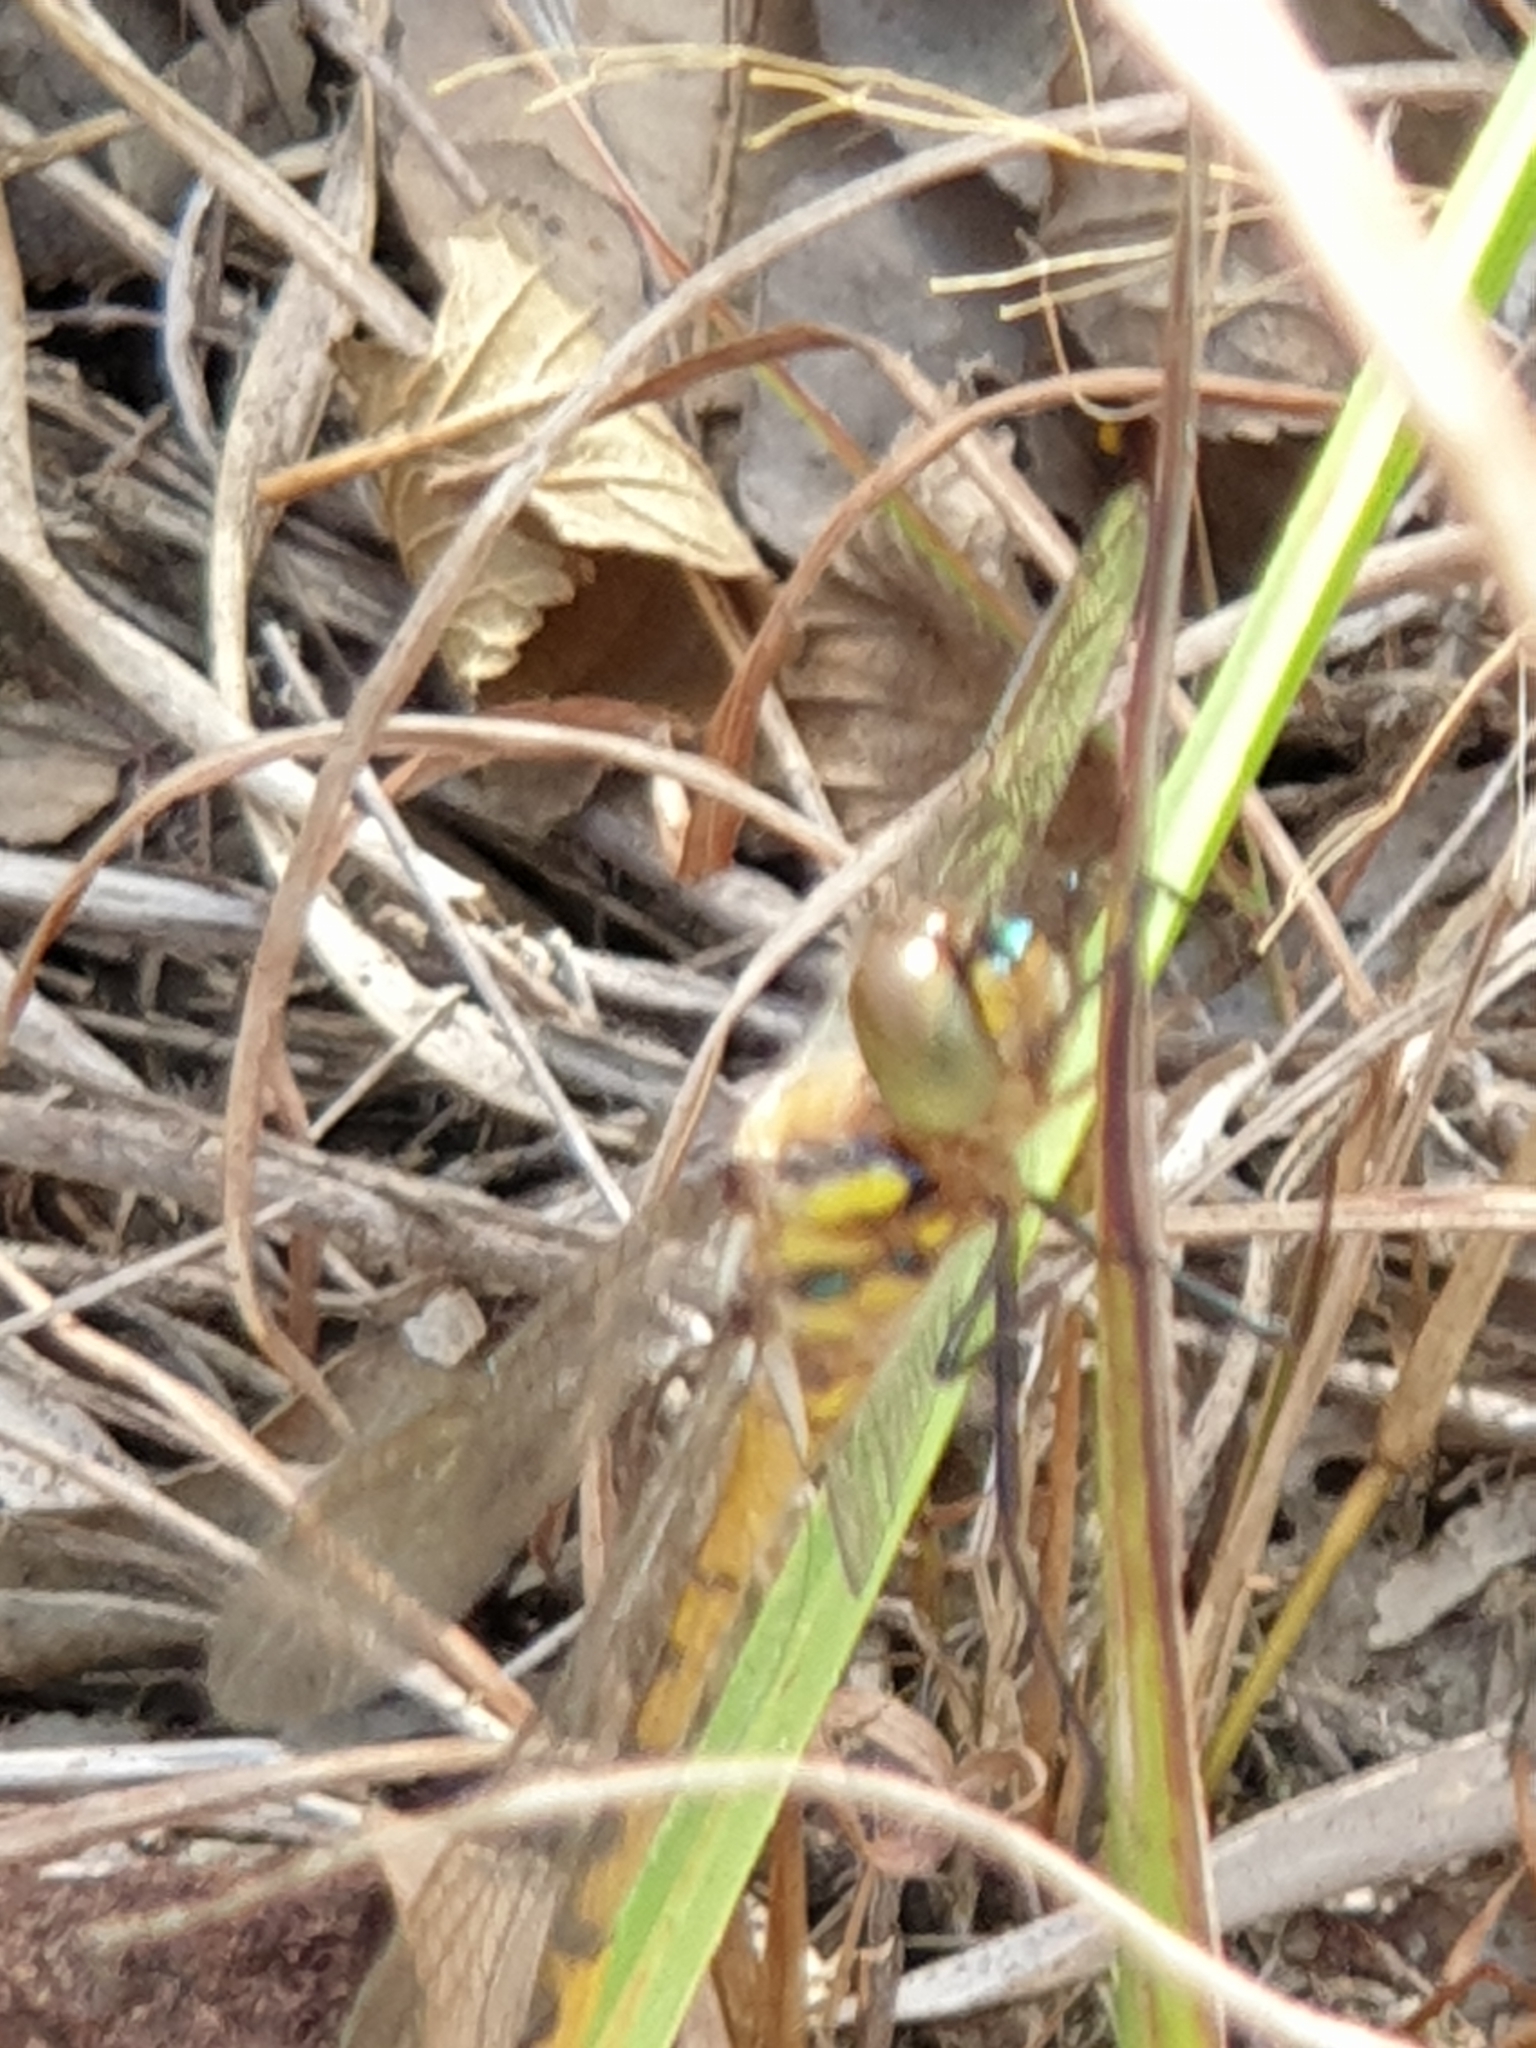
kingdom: Animalia
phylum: Arthropoda
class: Insecta
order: Odonata
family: Corduliidae
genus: Hemicordulia
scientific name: Hemicordulia australiae
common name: Sentry dragonfly
